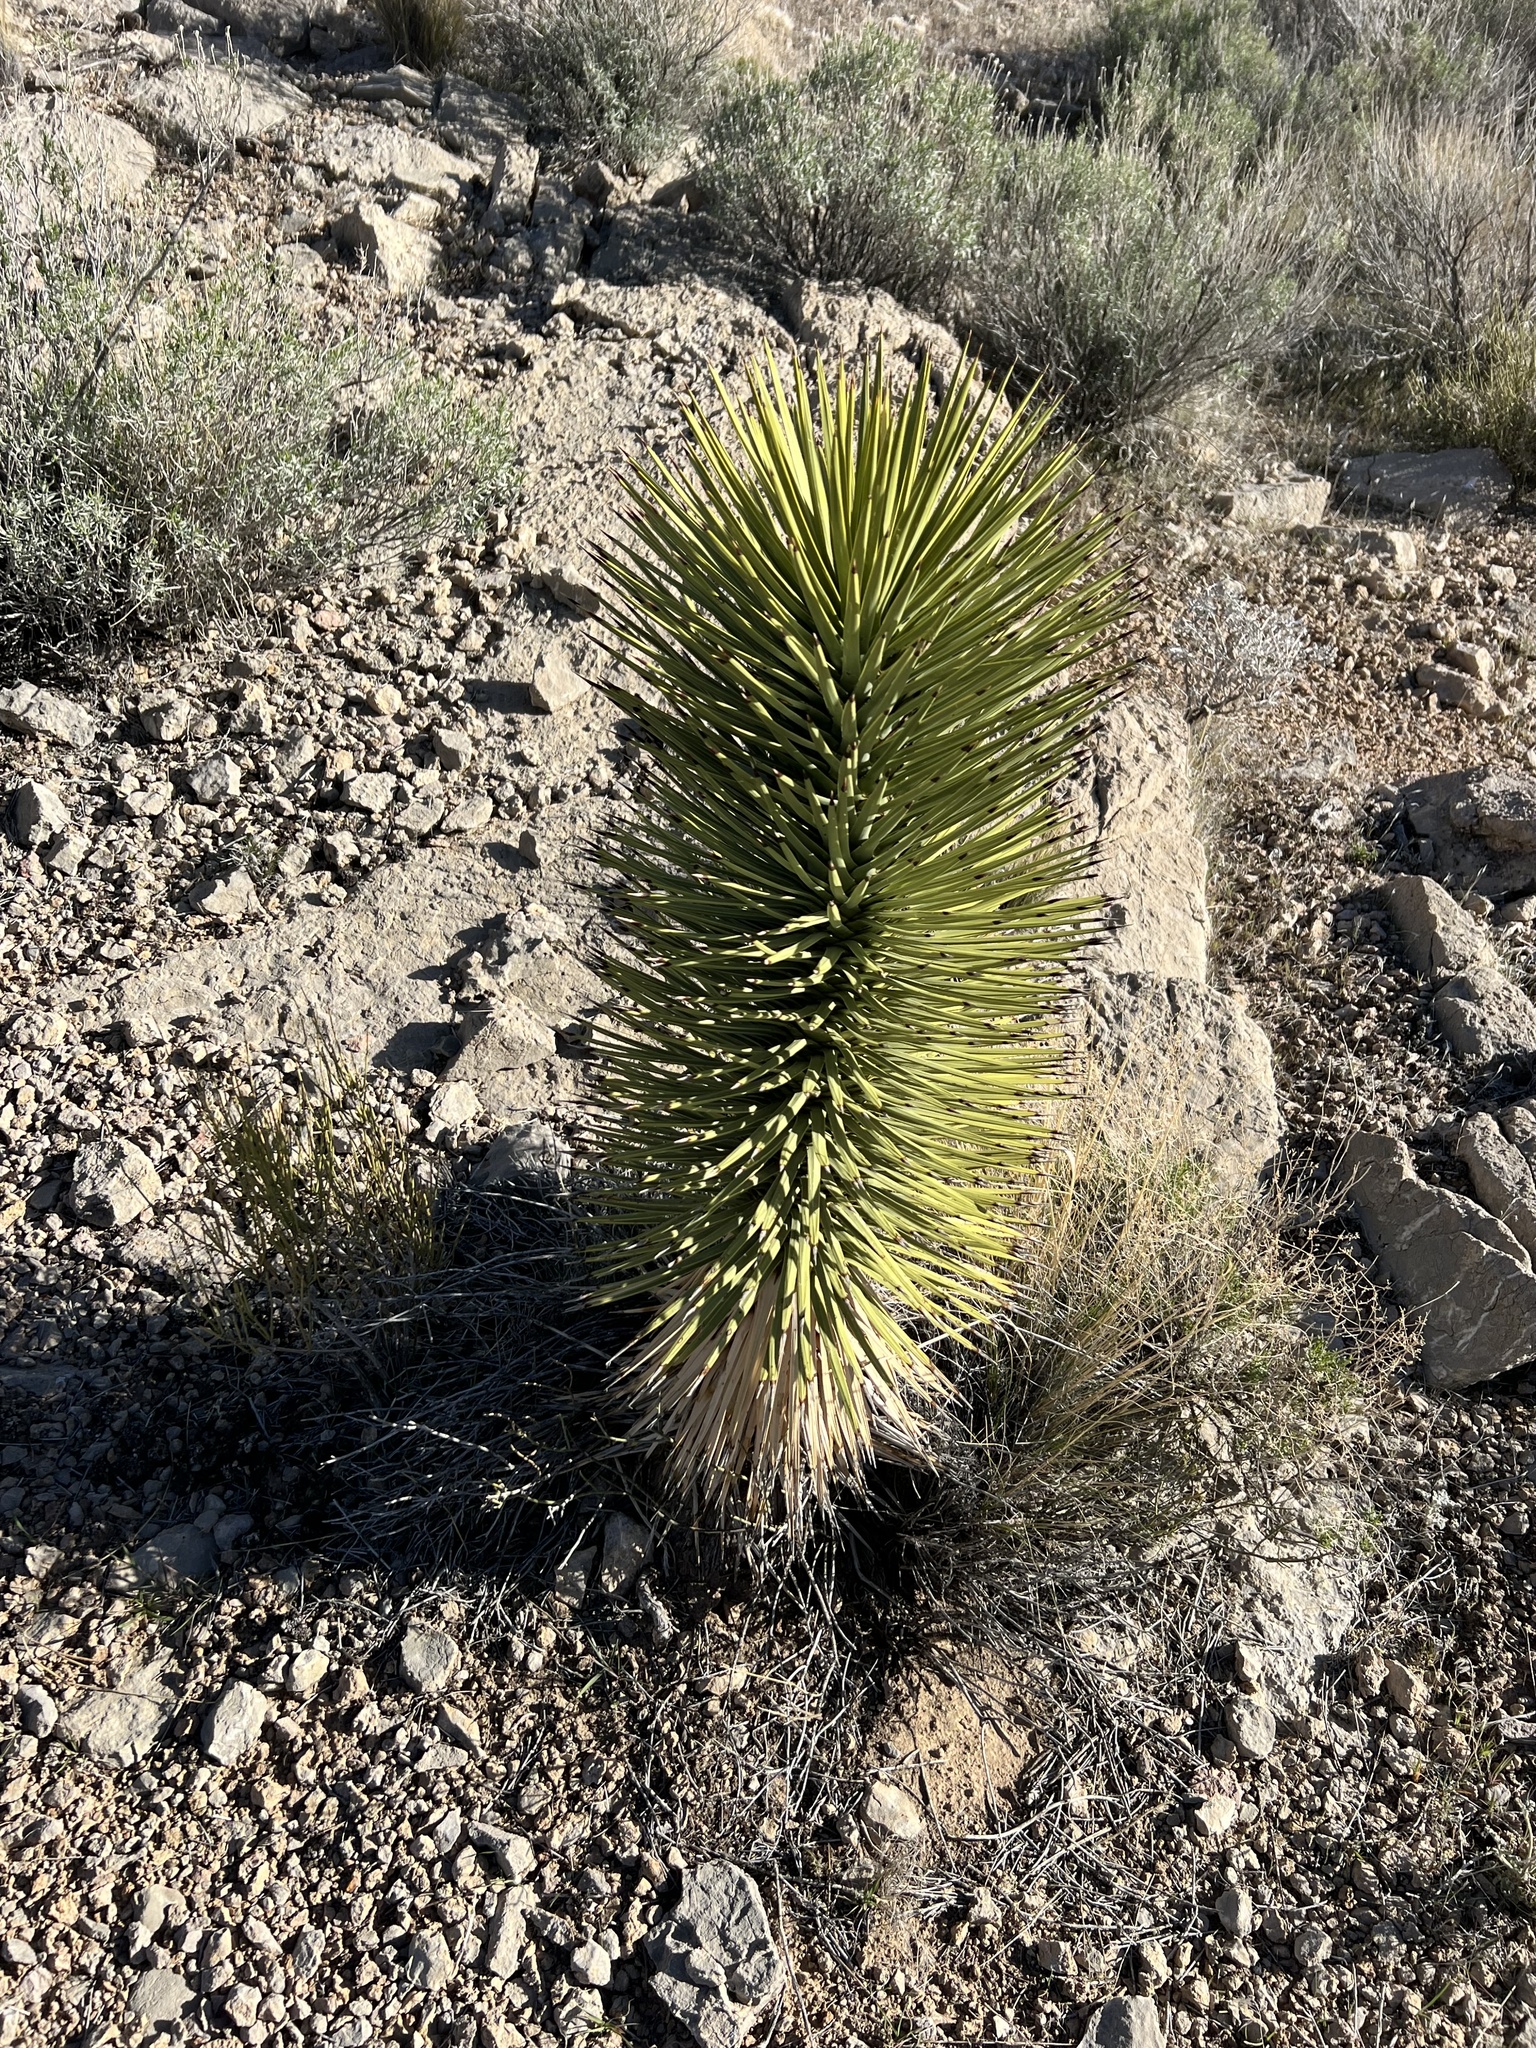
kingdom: Plantae
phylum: Tracheophyta
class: Liliopsida
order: Asparagales
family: Asparagaceae
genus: Yucca
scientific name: Yucca brevifolia
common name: Joshua tree
